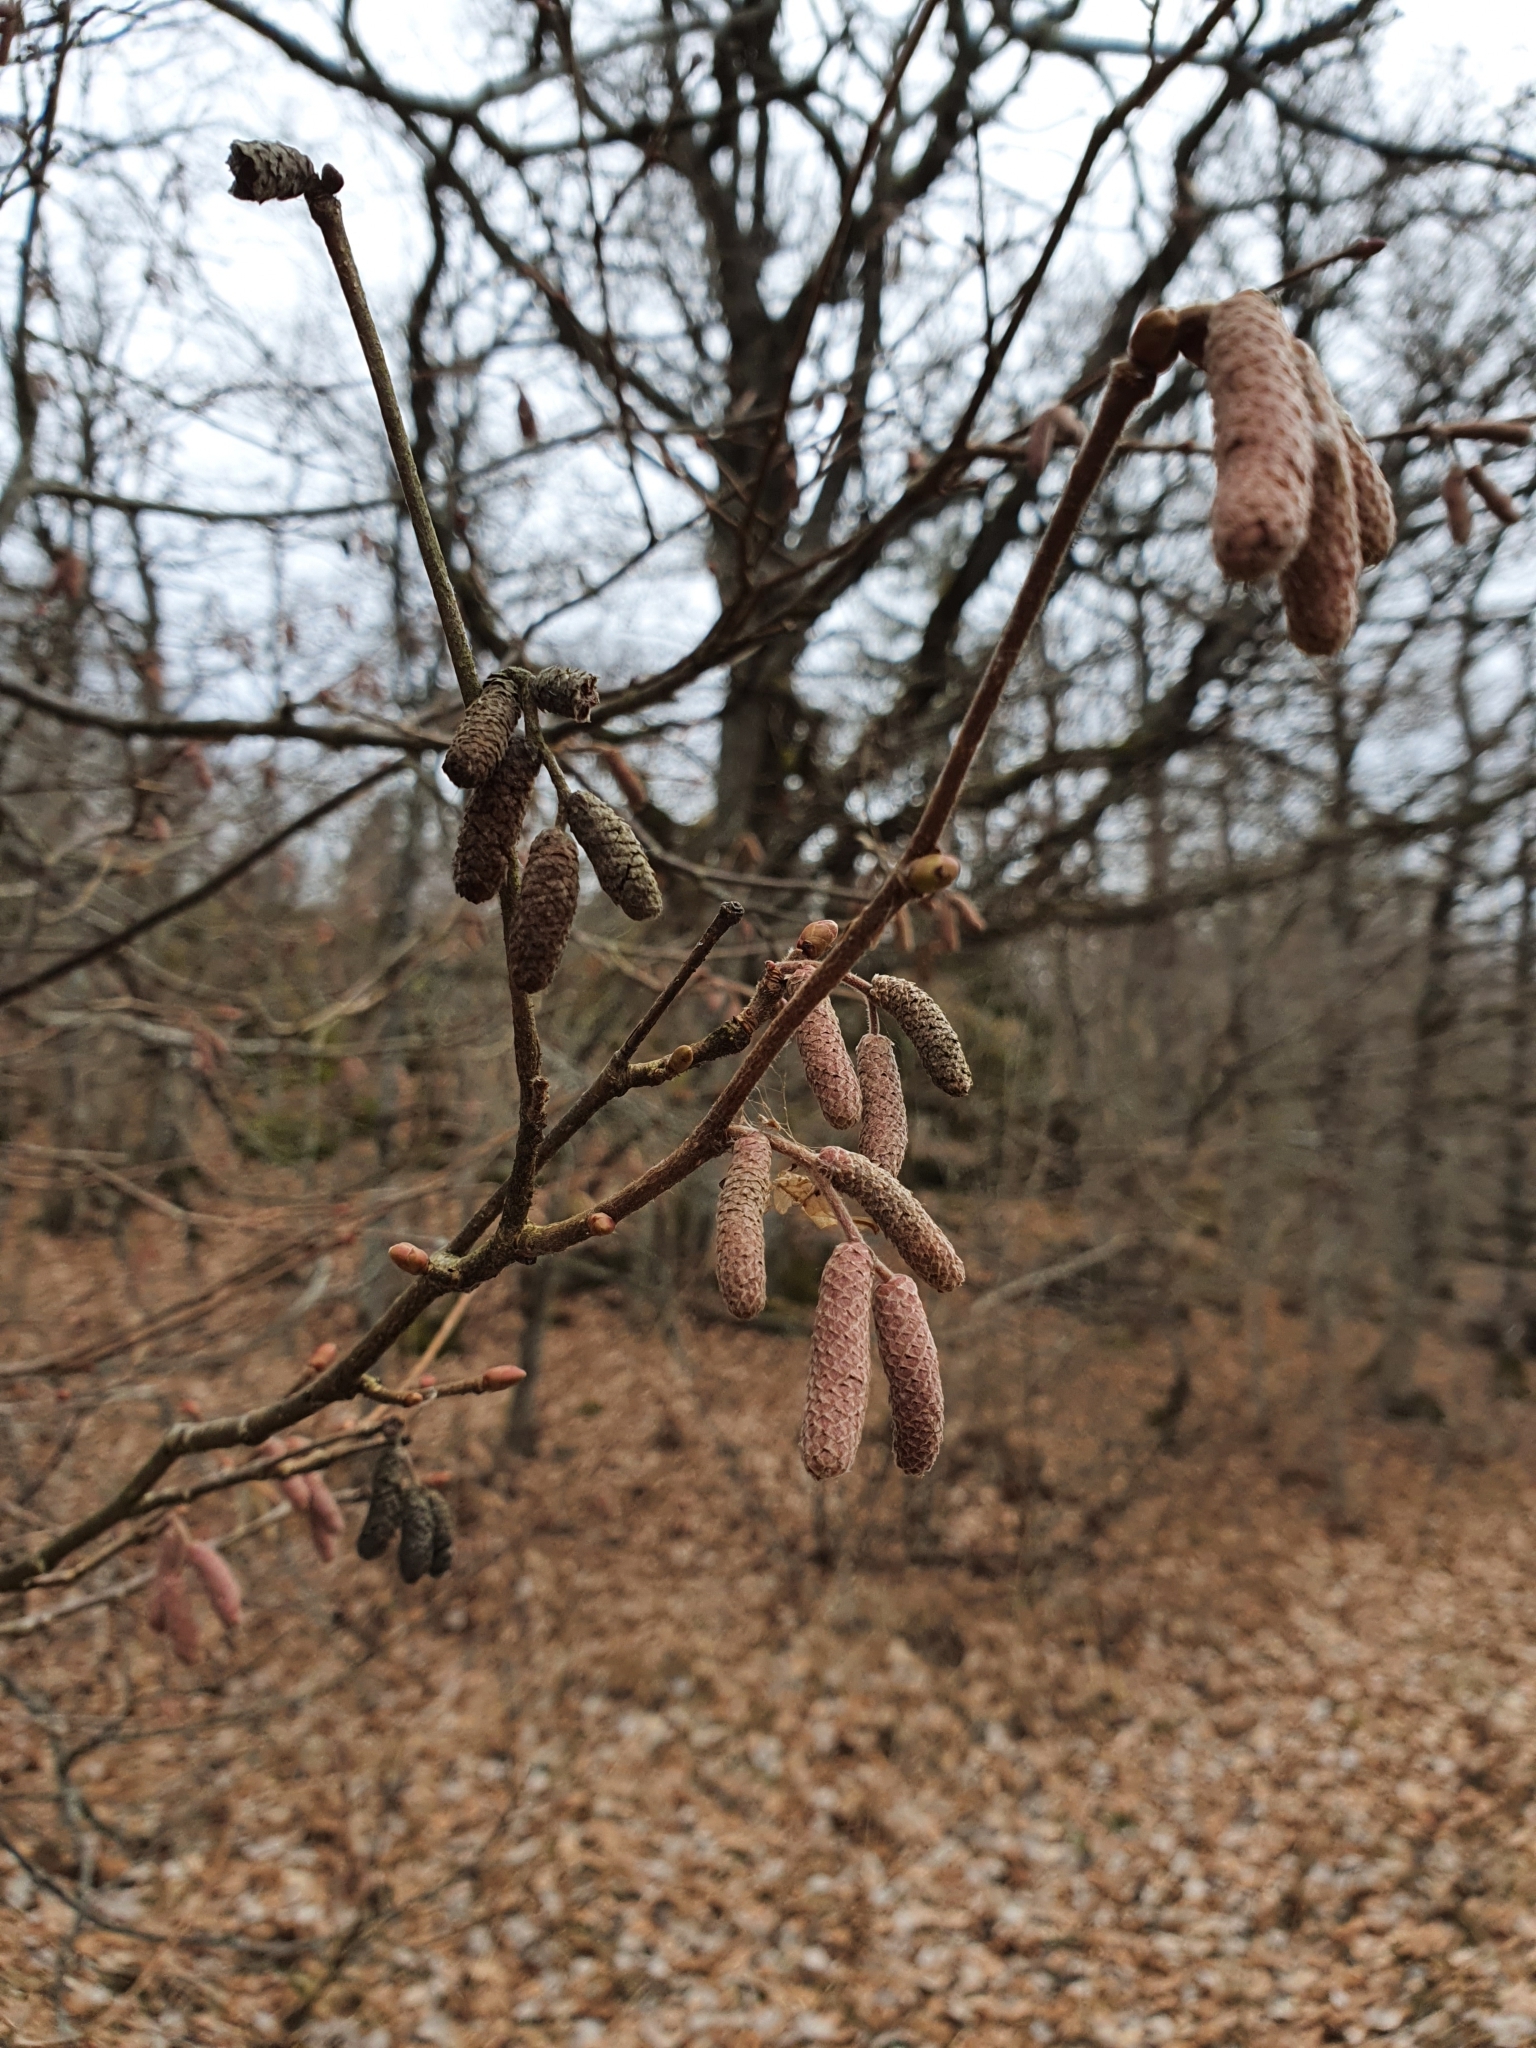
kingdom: Plantae
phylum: Tracheophyta
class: Magnoliopsida
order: Fagales
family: Betulaceae
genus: Corylus
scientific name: Corylus avellana
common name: European hazel
